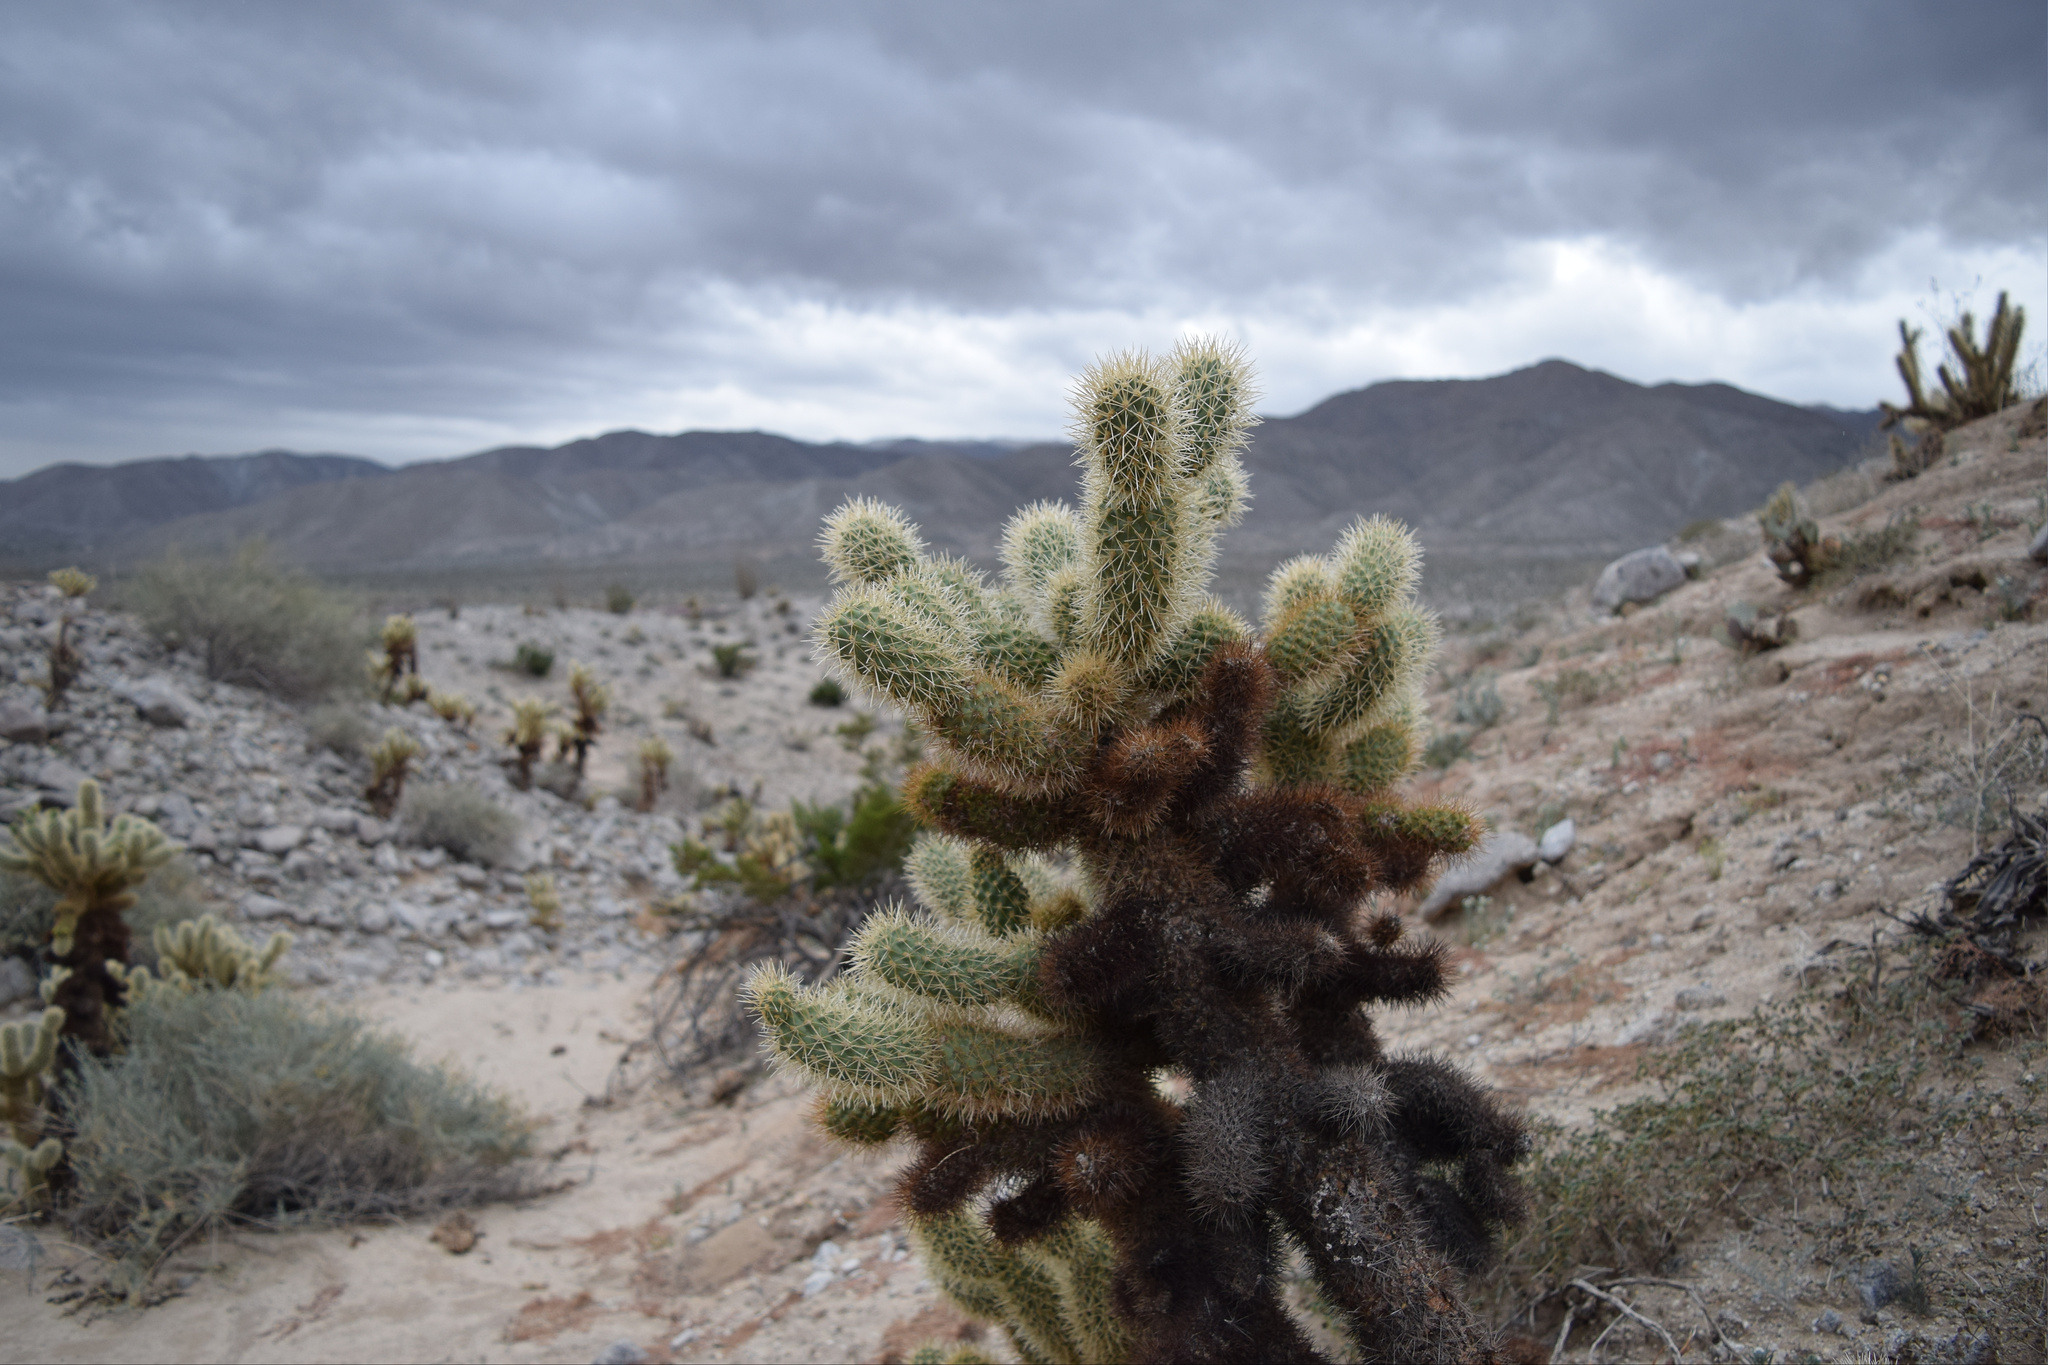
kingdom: Plantae
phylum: Tracheophyta
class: Magnoliopsida
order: Caryophyllales
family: Cactaceae
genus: Cylindropuntia
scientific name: Cylindropuntia fosbergii
